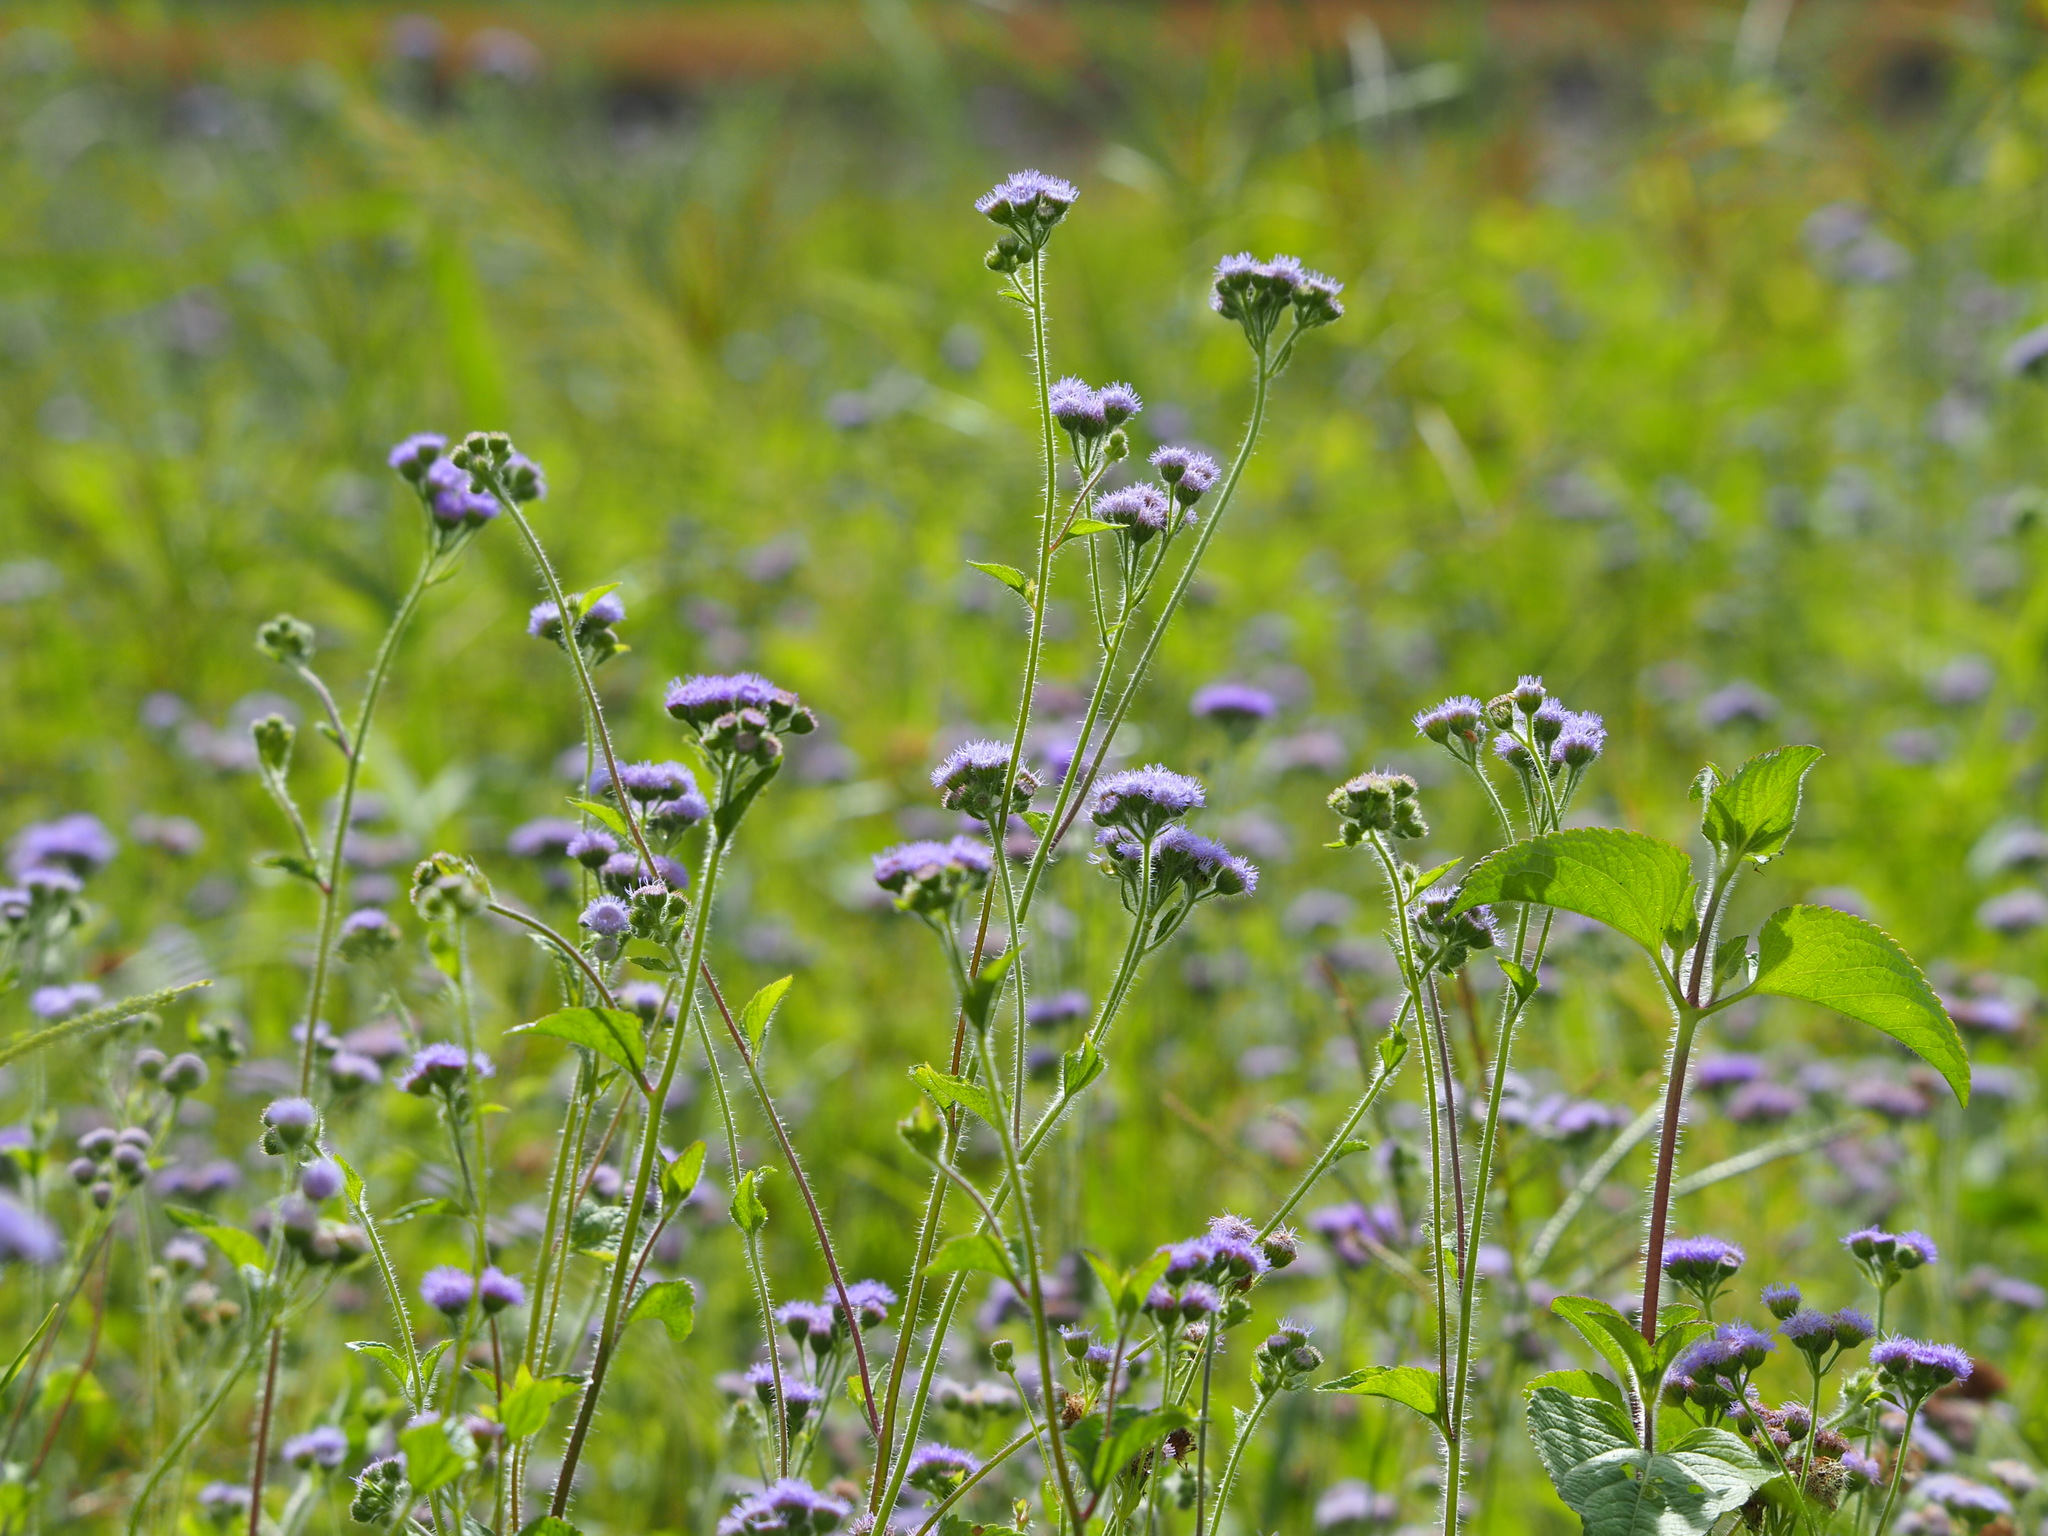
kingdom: Plantae
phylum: Tracheophyta
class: Magnoliopsida
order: Asterales
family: Asteraceae
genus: Ageratum
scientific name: Ageratum houstonianum
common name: Bluemink
